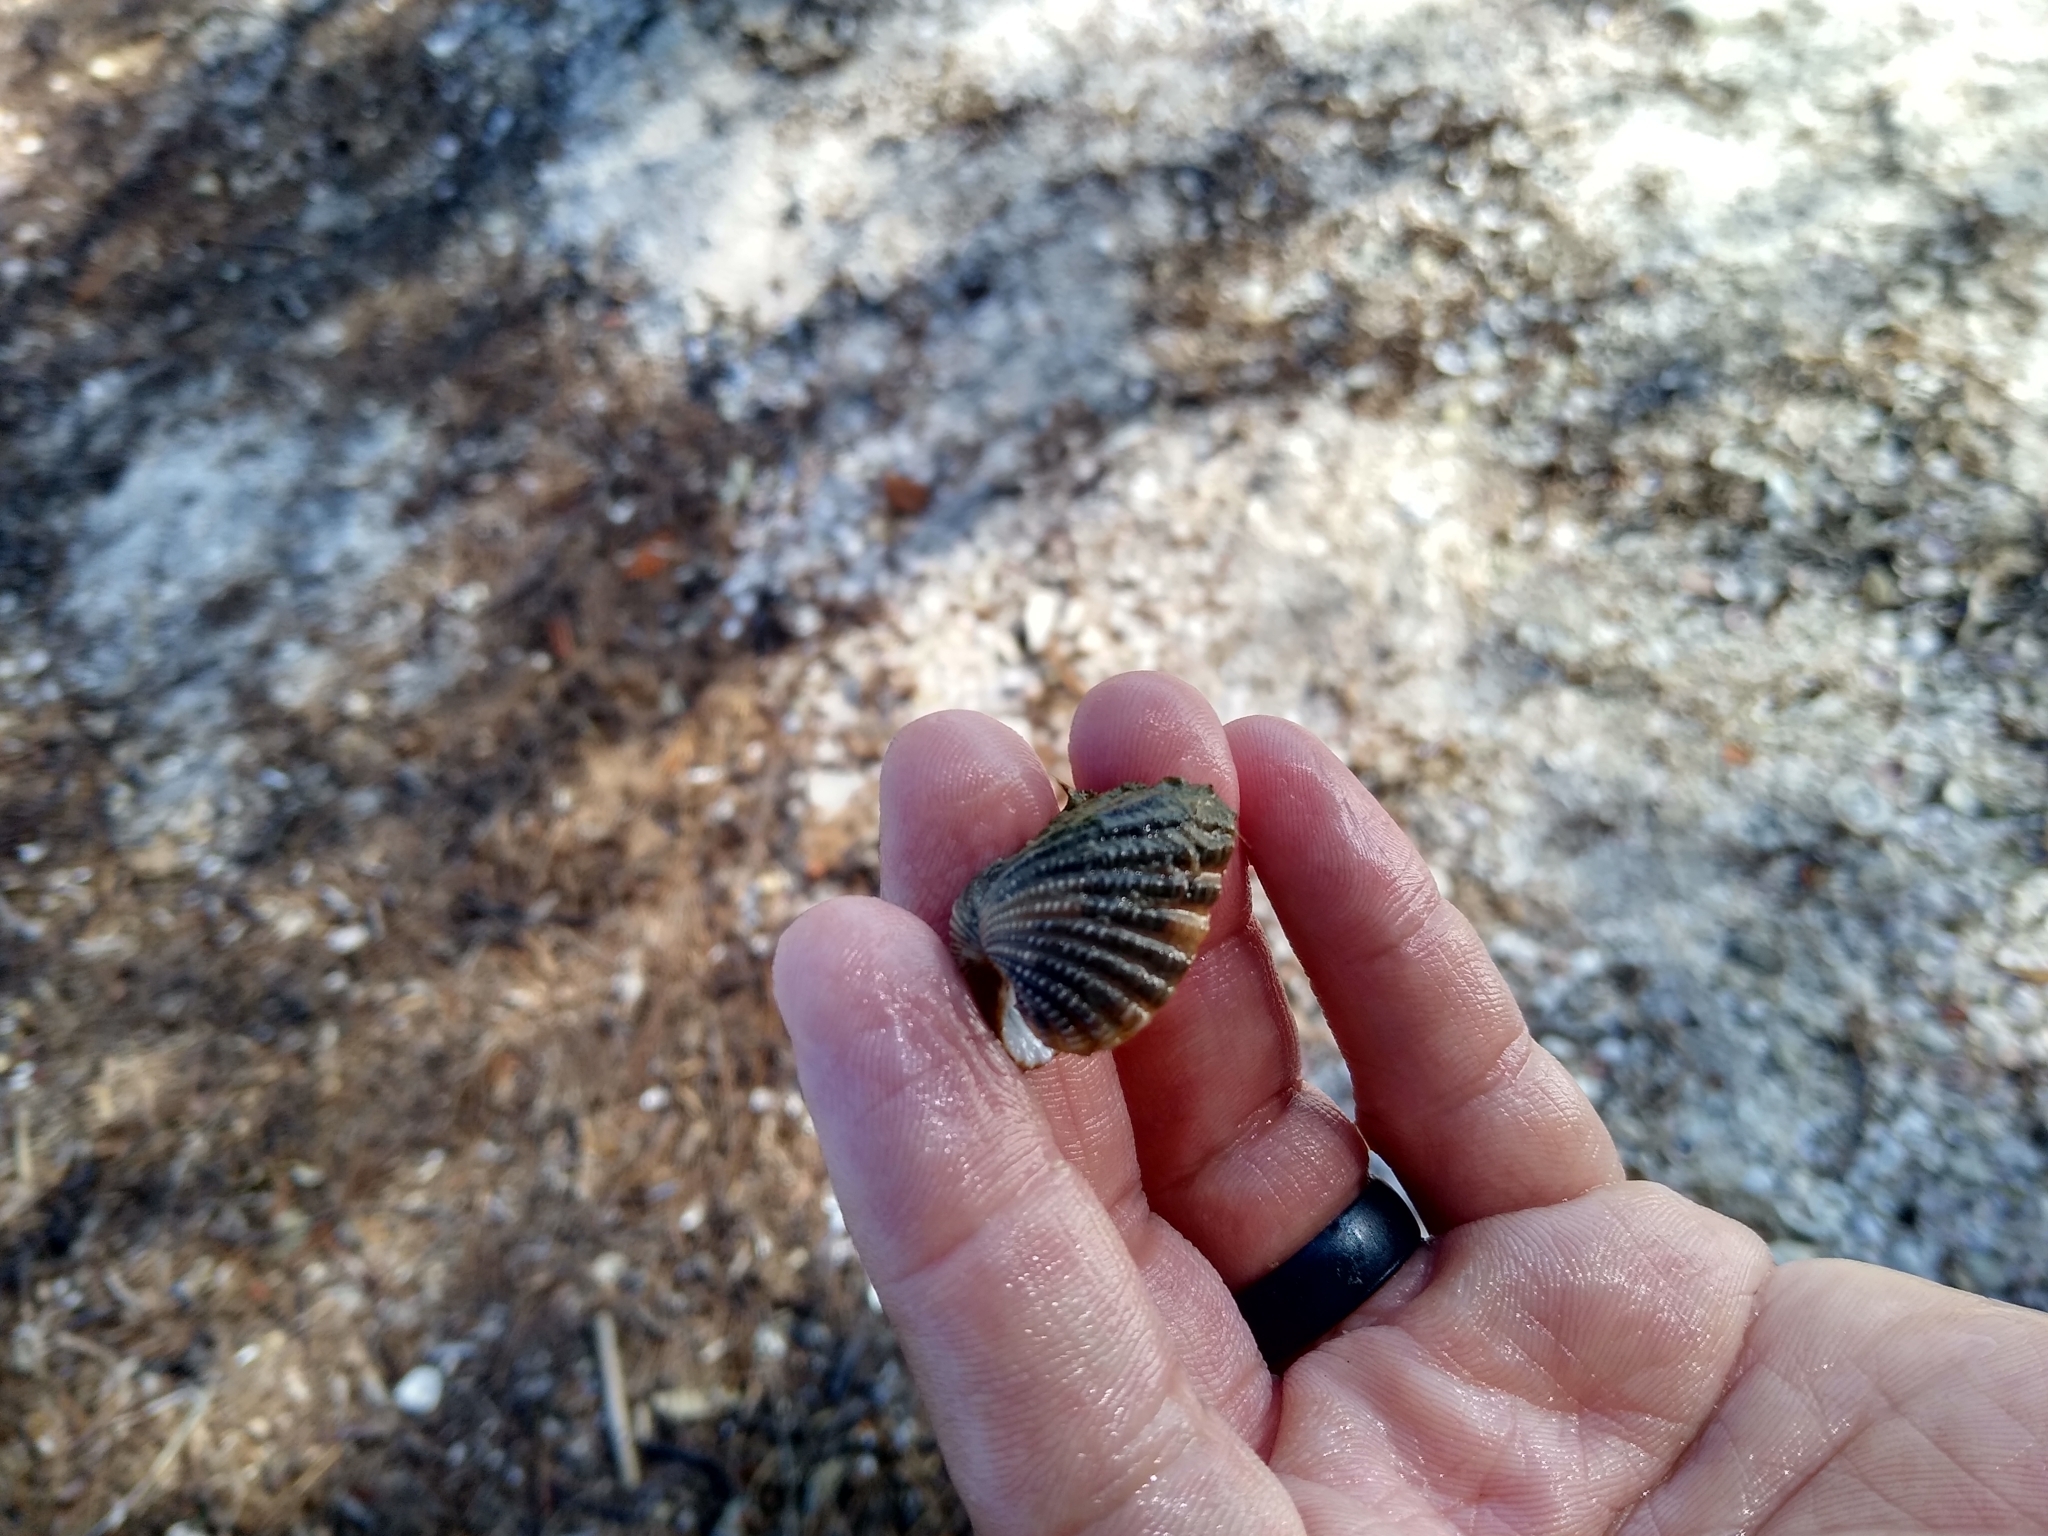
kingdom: Animalia
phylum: Mollusca
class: Bivalvia
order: Carditida
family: Carditidae
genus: Cardites
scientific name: Cardites floridanus
